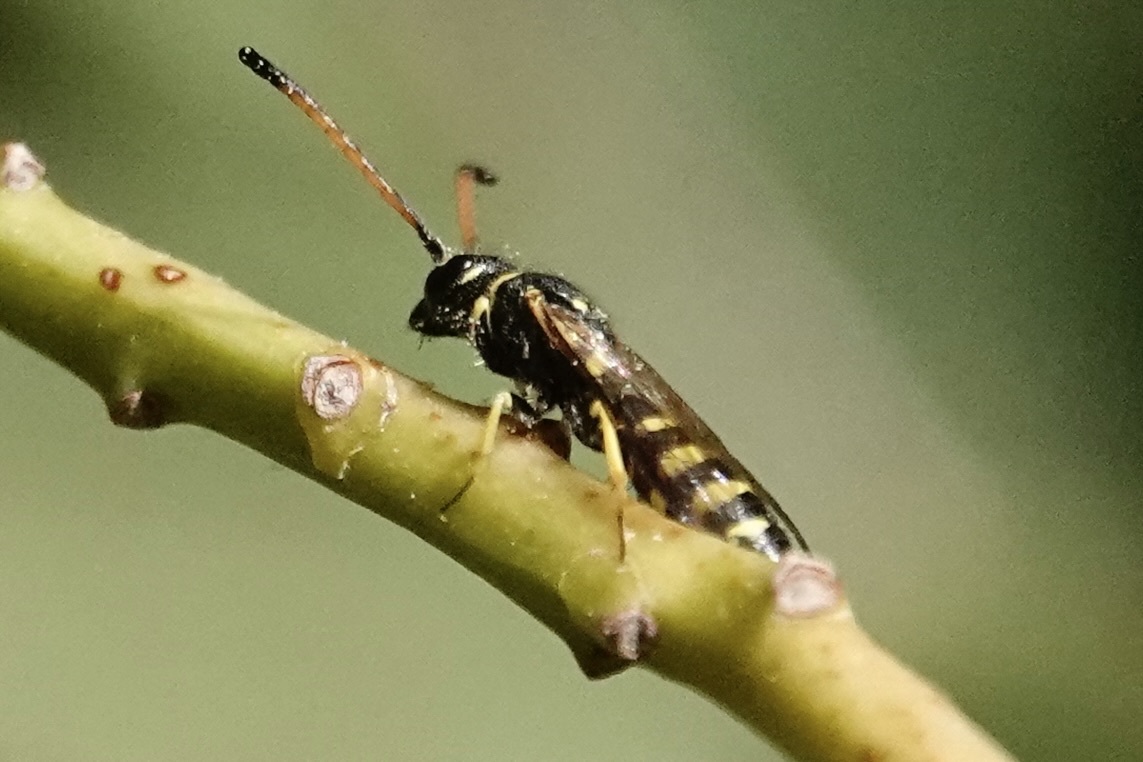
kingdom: Animalia
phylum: Arthropoda
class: Insecta
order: Hymenoptera
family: Sapygidae
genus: Sapyga
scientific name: Sapyga centrata
